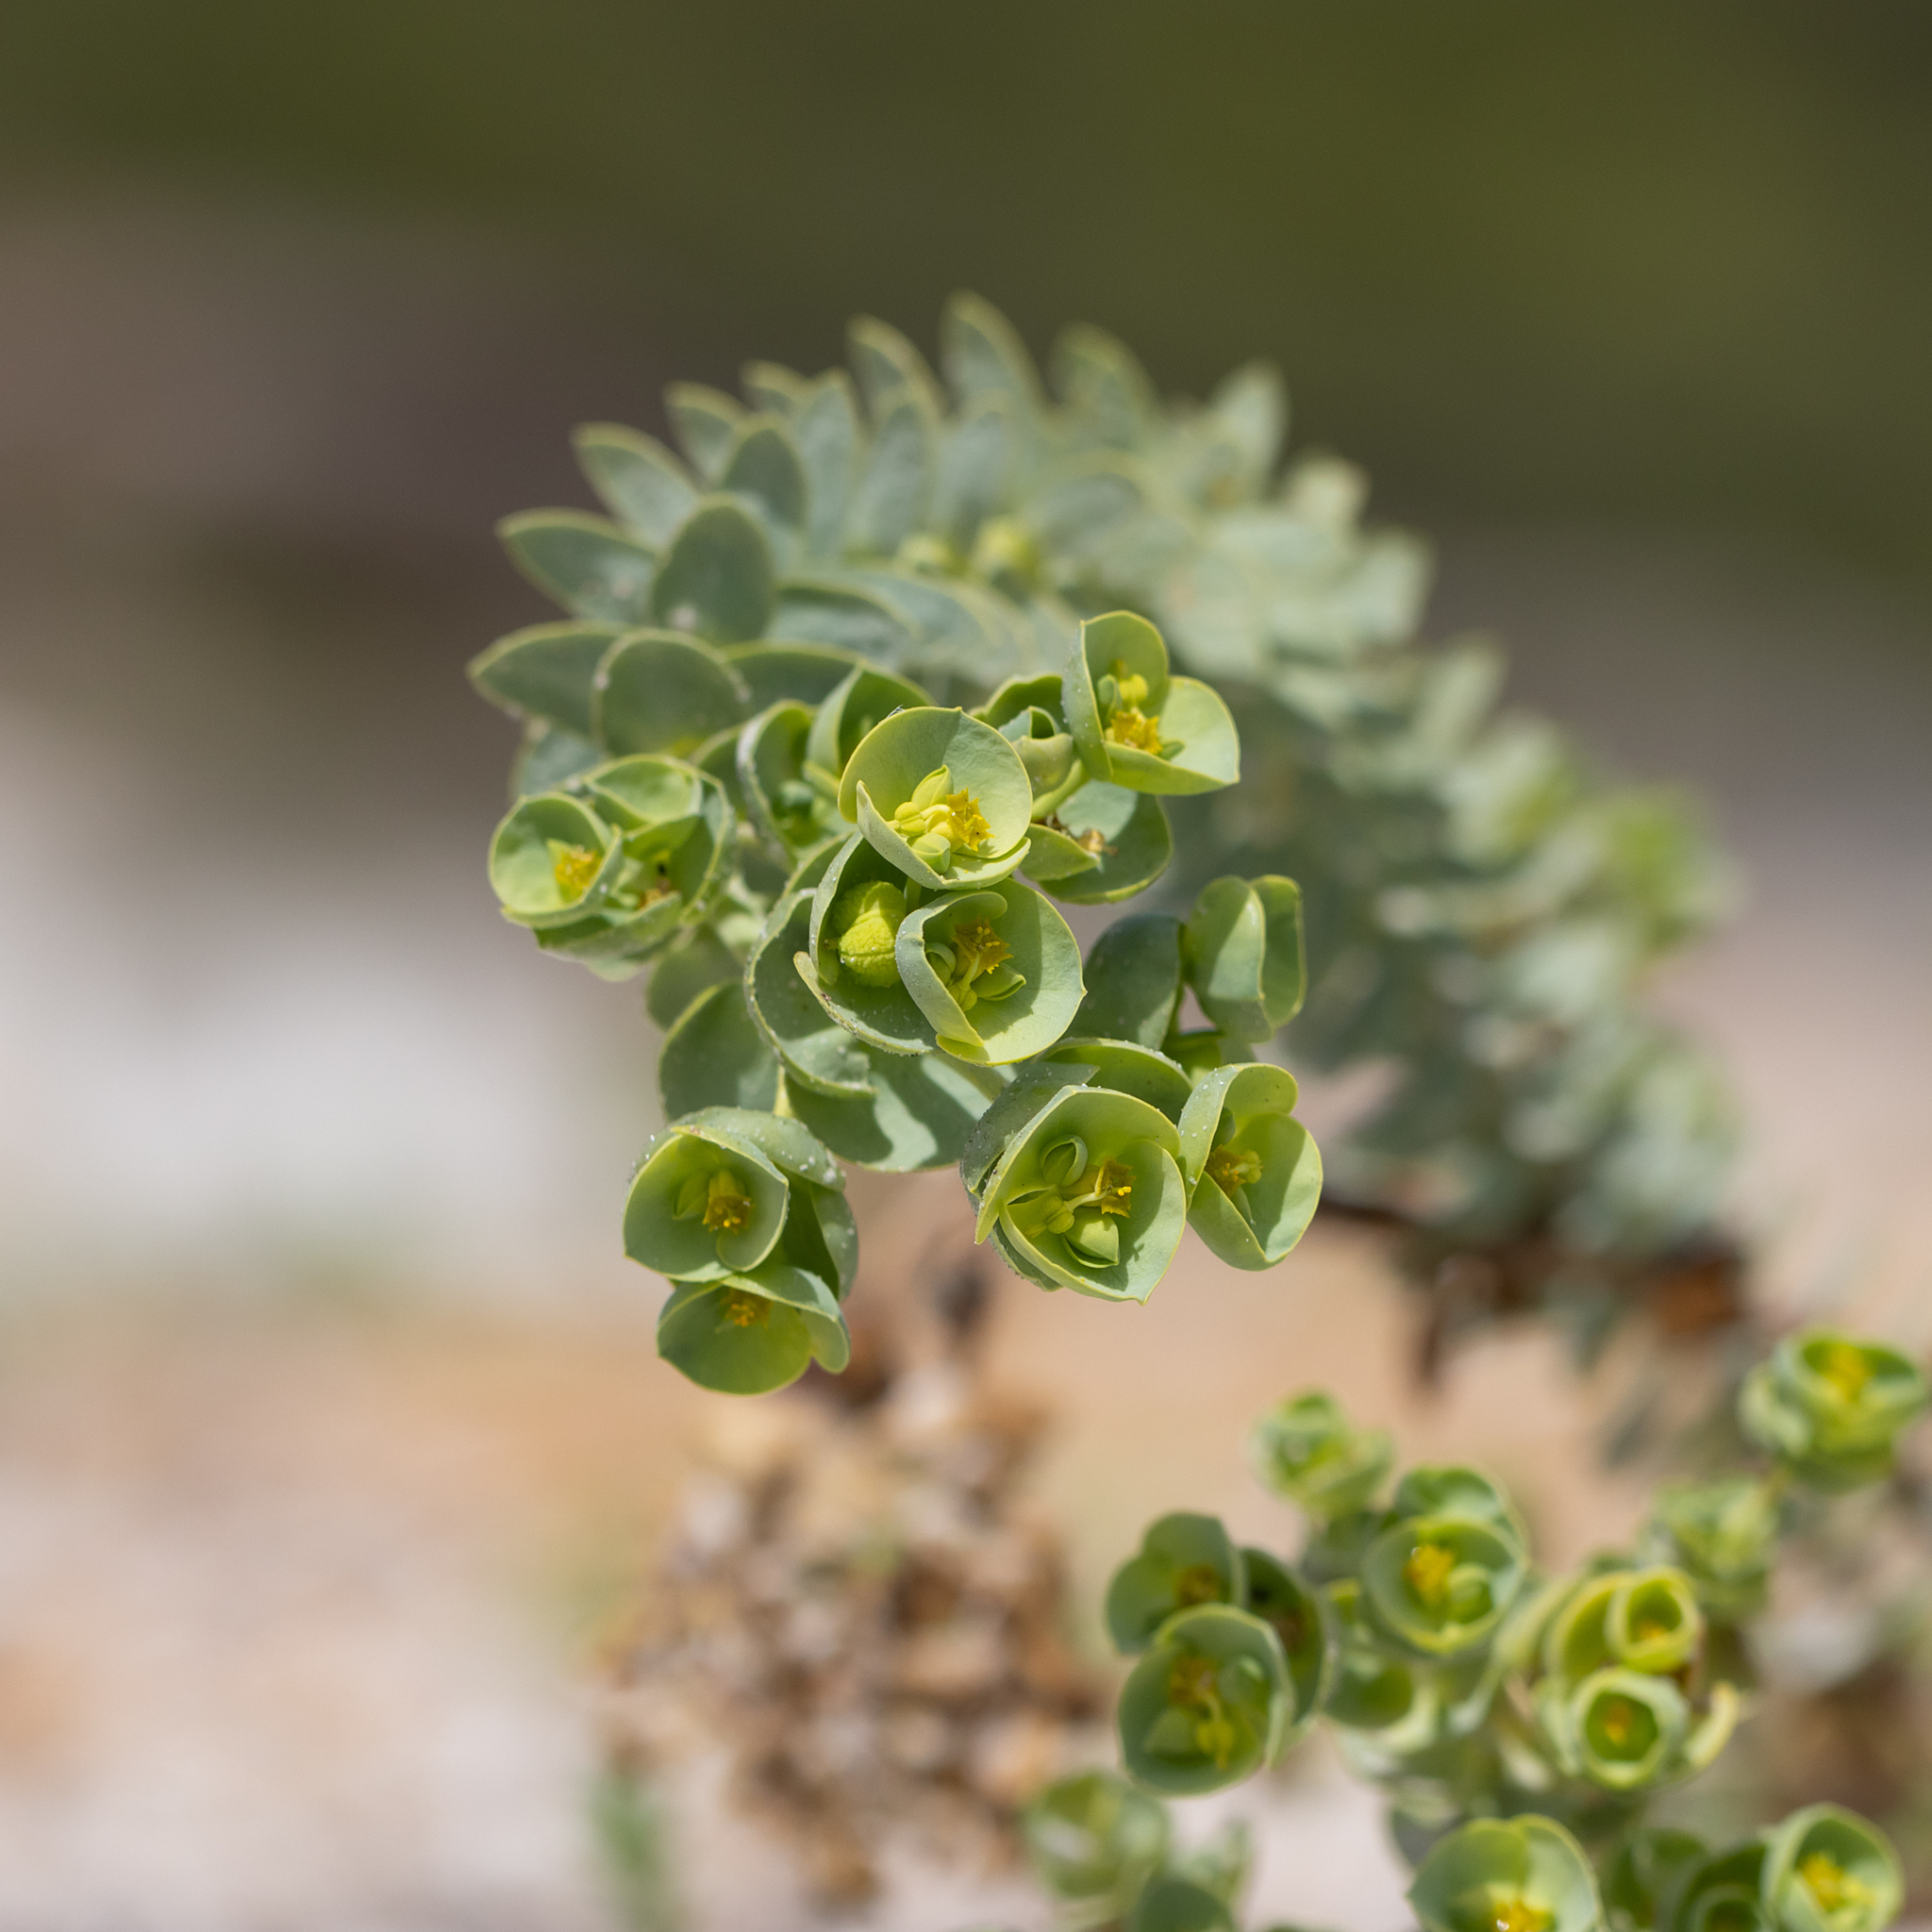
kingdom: Plantae
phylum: Tracheophyta
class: Magnoliopsida
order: Malpighiales
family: Euphorbiaceae
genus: Euphorbia
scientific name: Euphorbia paralias
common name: Sea spurge
